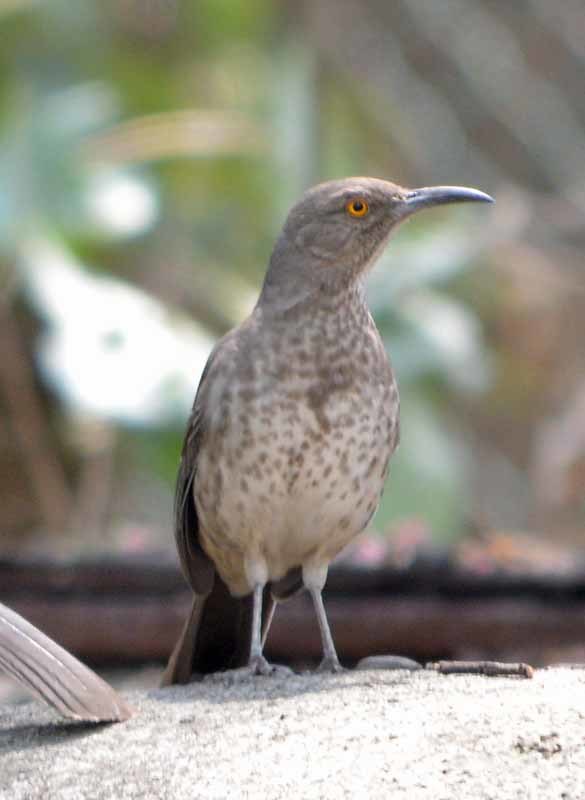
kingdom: Animalia
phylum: Chordata
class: Aves
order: Passeriformes
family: Mimidae
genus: Toxostoma
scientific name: Toxostoma curvirostre
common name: Curve-billed thrasher
